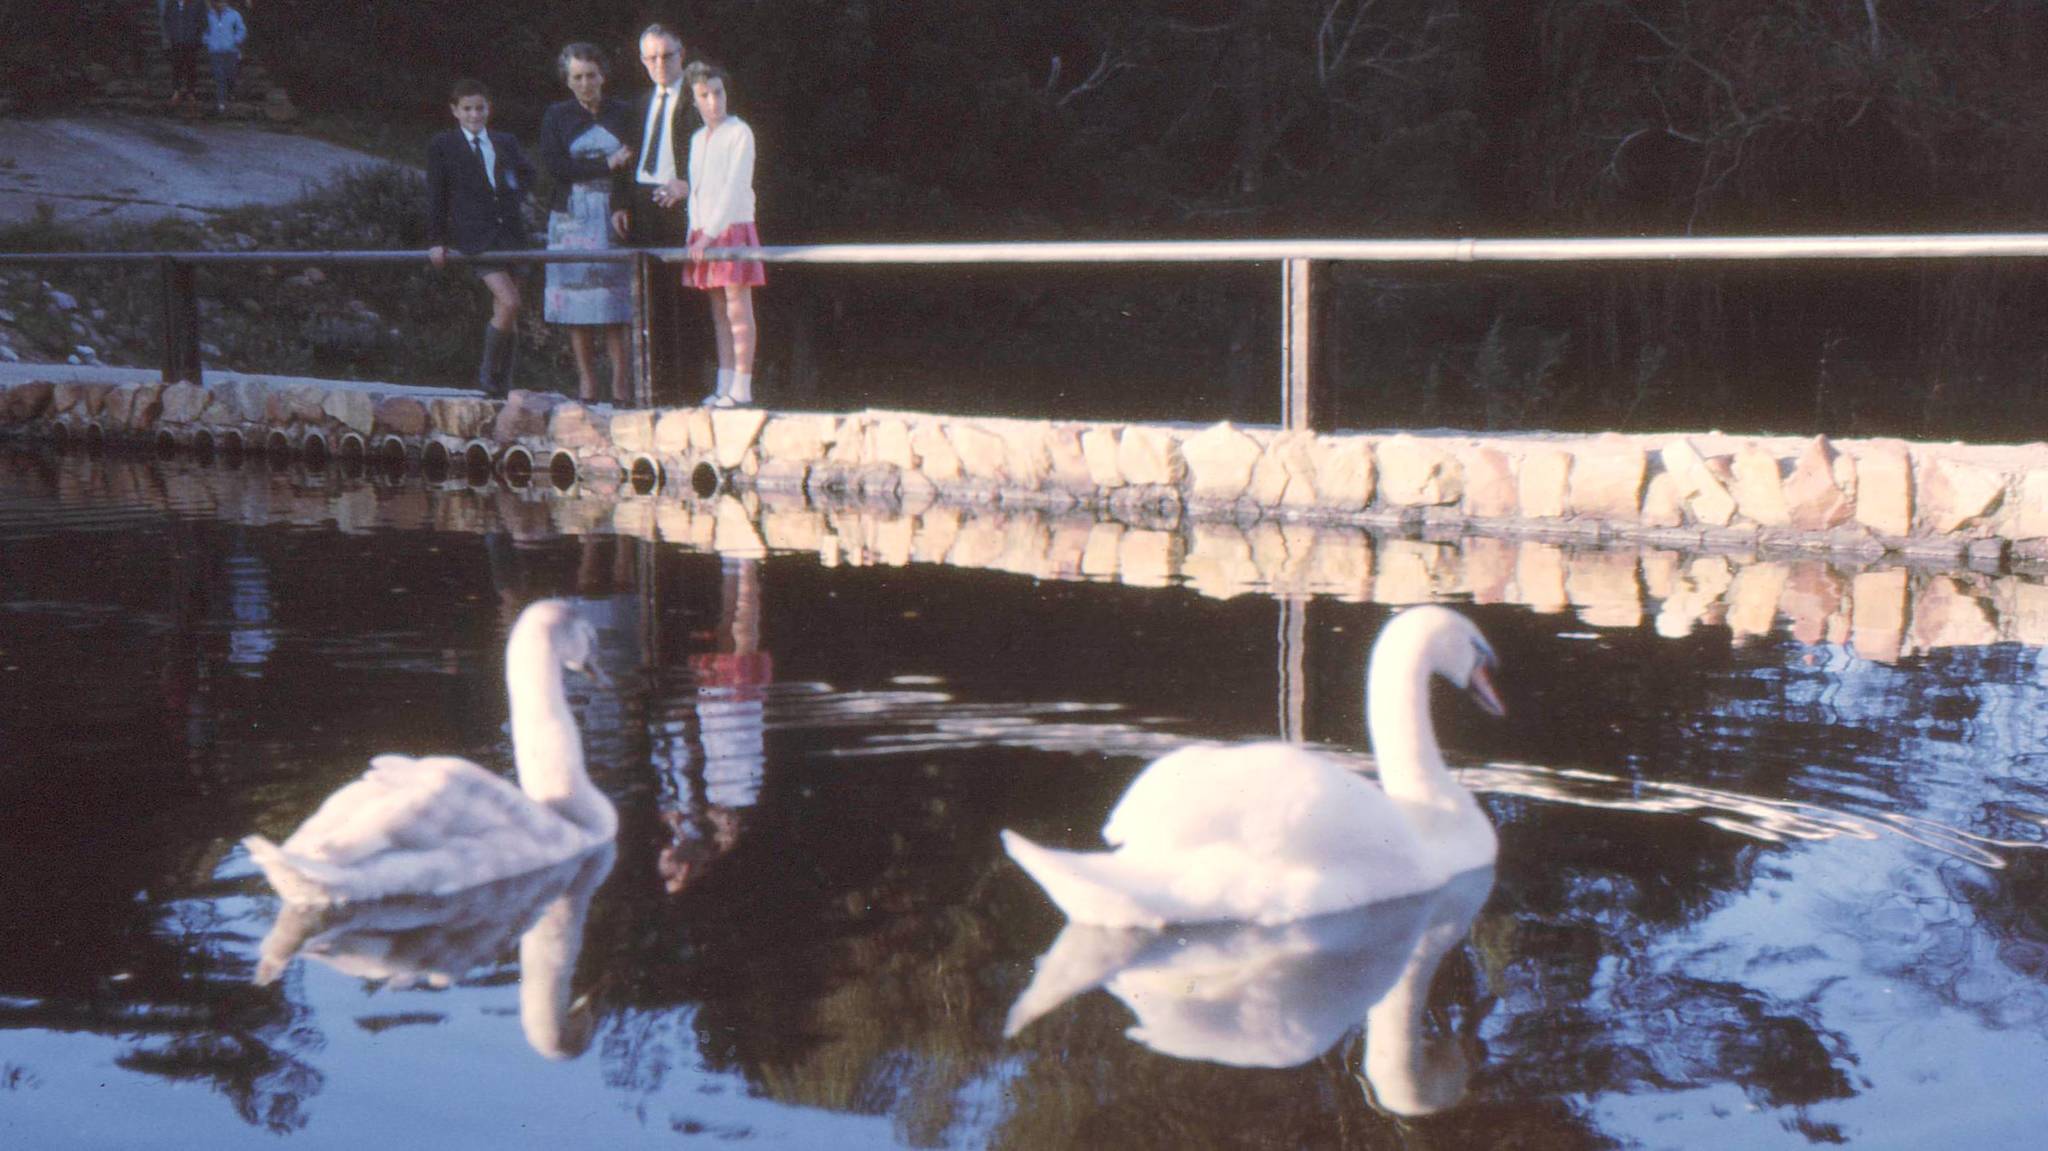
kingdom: Animalia
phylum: Chordata
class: Aves
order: Anseriformes
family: Anatidae
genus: Cygnus
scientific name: Cygnus olor
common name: Mute swan
